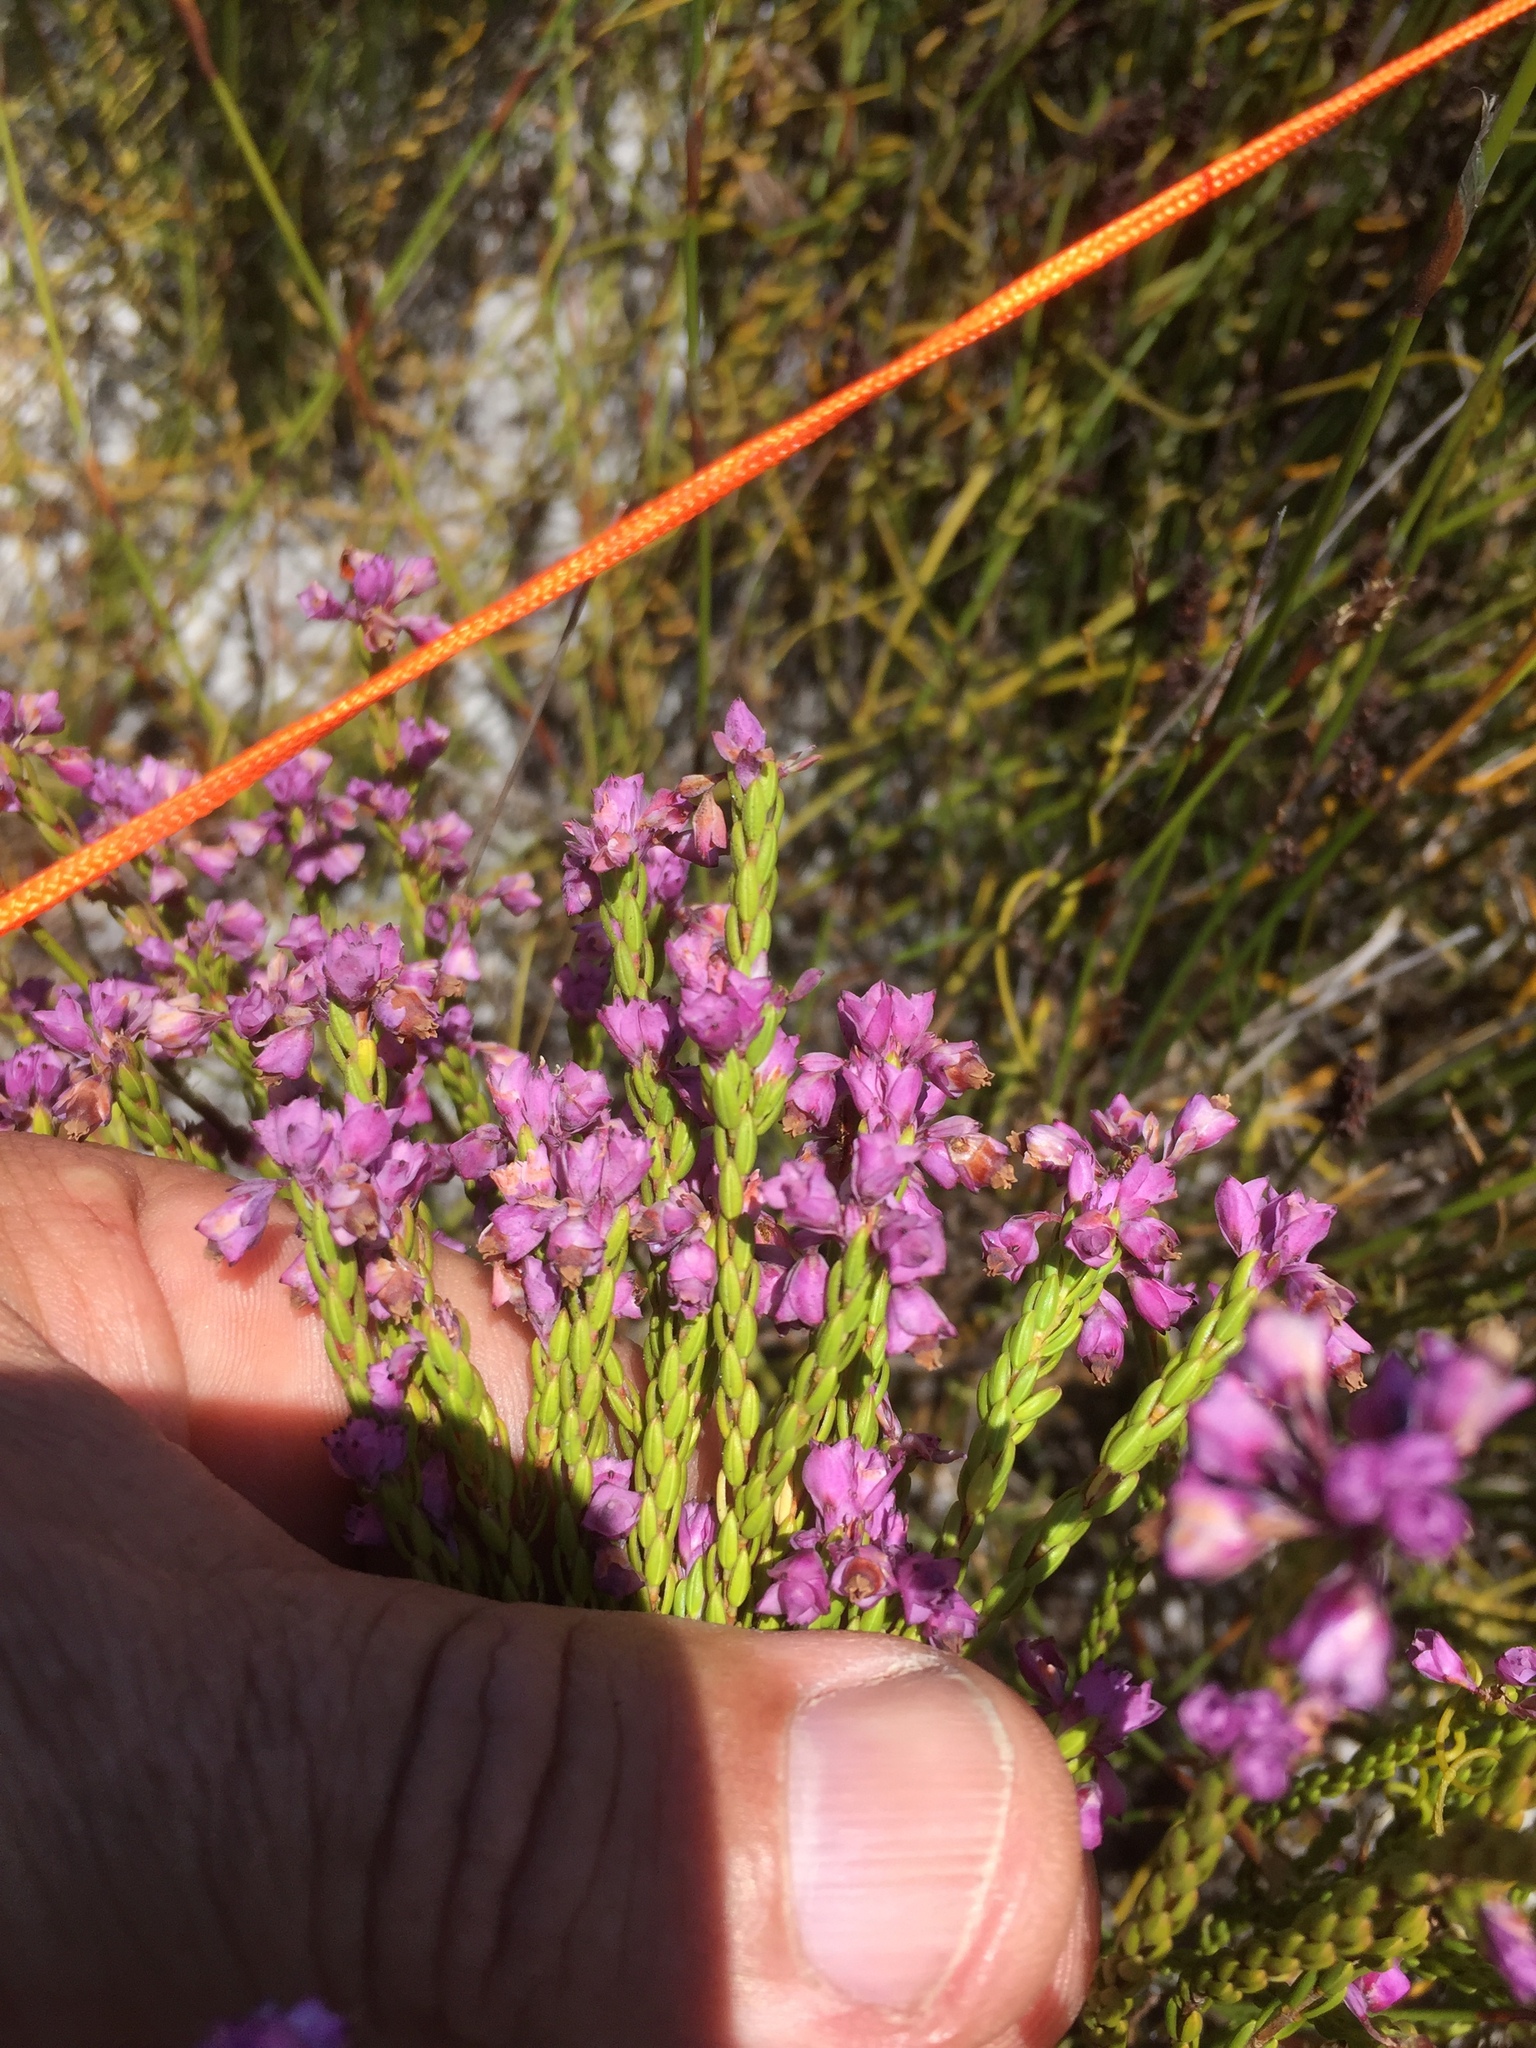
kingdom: Plantae
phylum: Tracheophyta
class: Magnoliopsida
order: Ericales
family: Ericaceae
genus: Erica
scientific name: Erica corifolia
